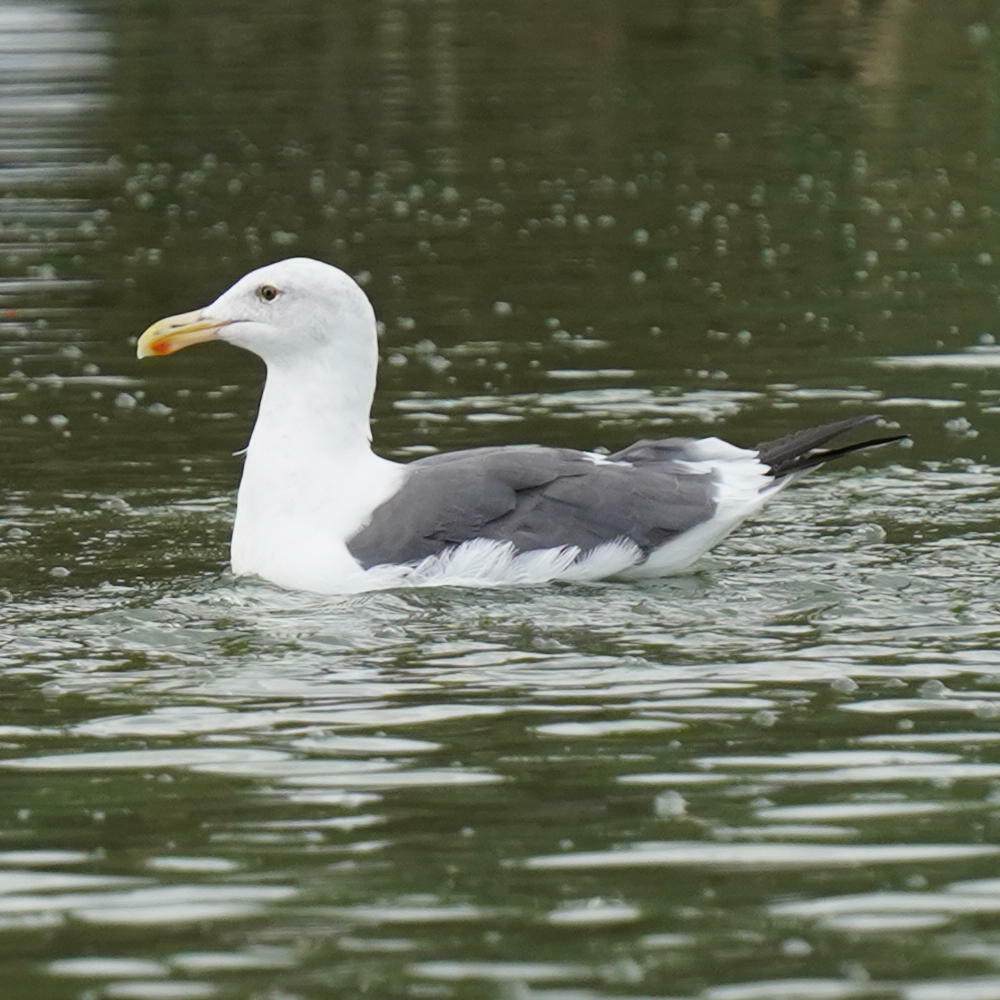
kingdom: Animalia
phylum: Chordata
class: Aves
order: Charadriiformes
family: Laridae
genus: Larus
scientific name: Larus occidentalis
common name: Western gull
